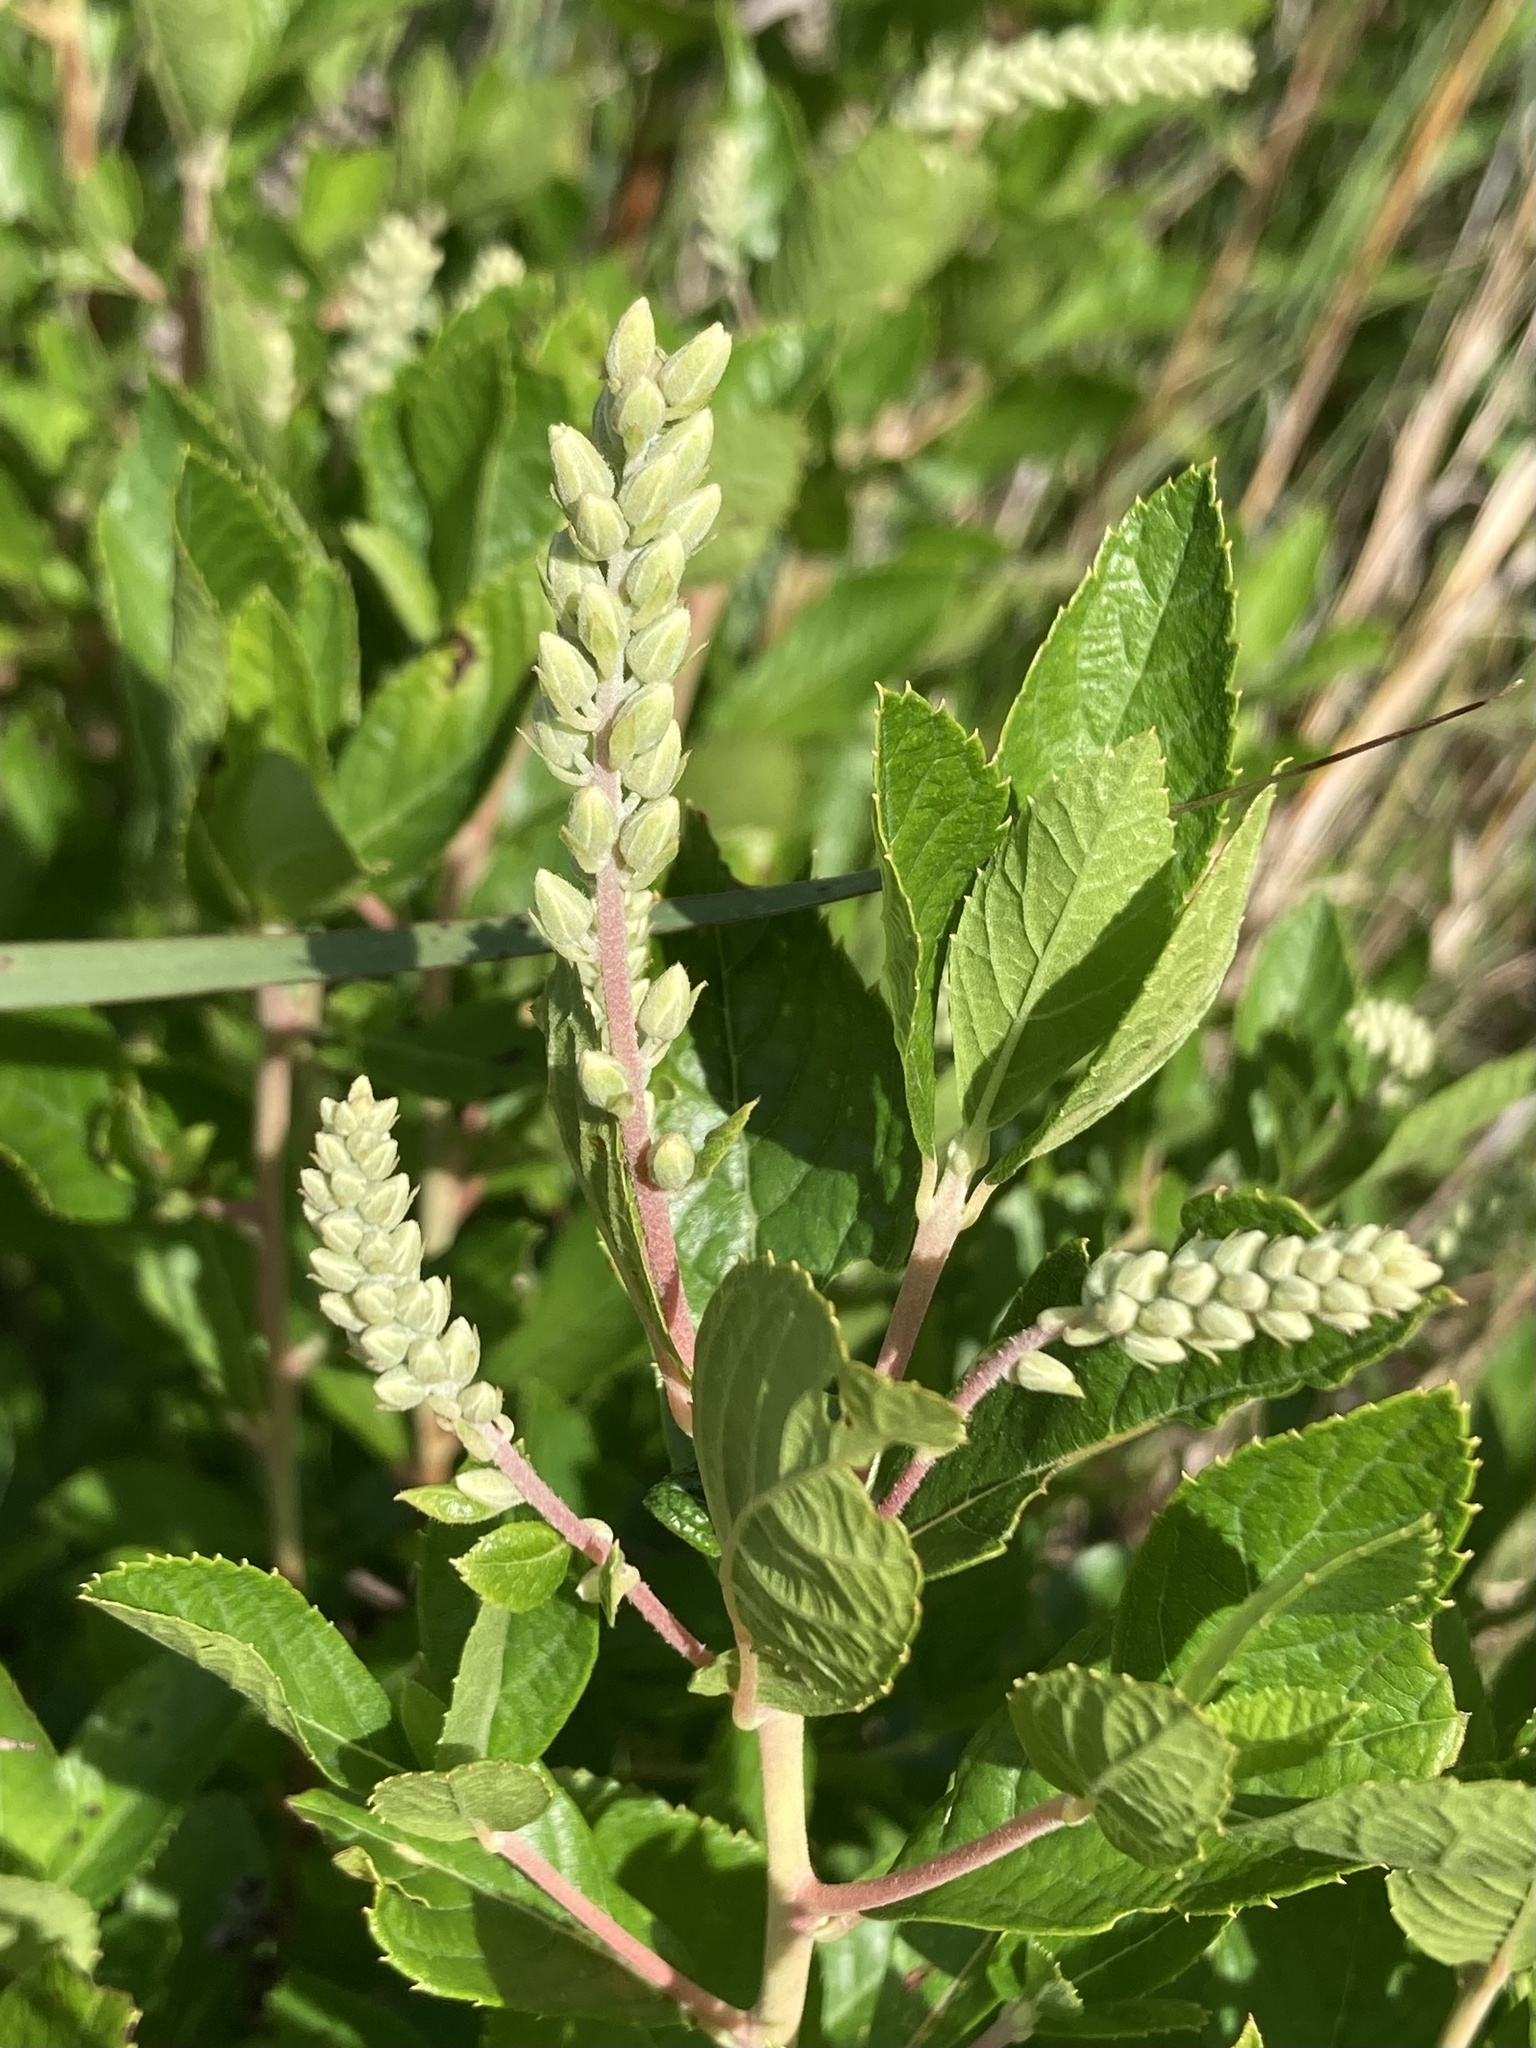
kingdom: Plantae
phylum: Tracheophyta
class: Magnoliopsida
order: Ericales
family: Clethraceae
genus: Clethra
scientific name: Clethra alnifolia
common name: Sweet pepperbush
